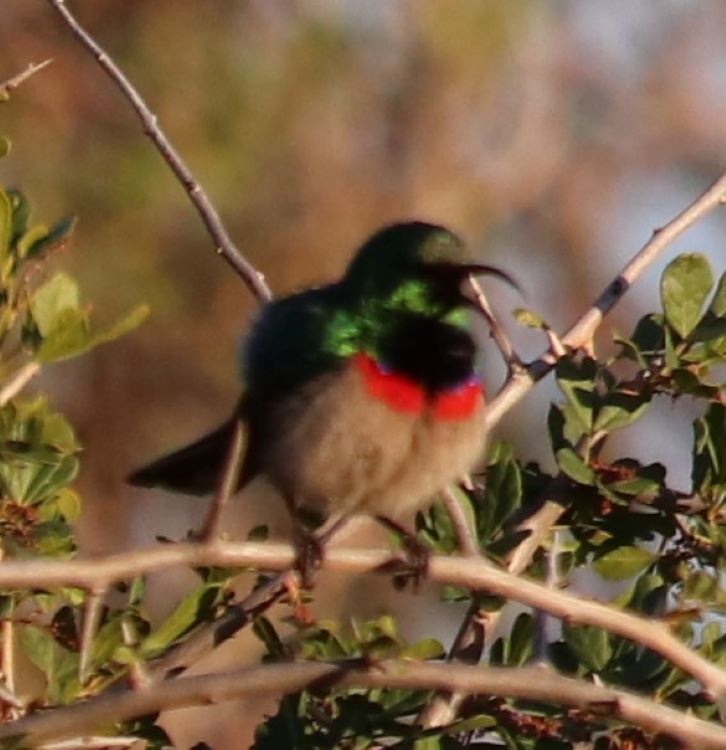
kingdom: Animalia
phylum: Chordata
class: Aves
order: Passeriformes
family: Nectariniidae
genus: Cinnyris
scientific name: Cinnyris chalybeus
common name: Southern double-collared sunbird
